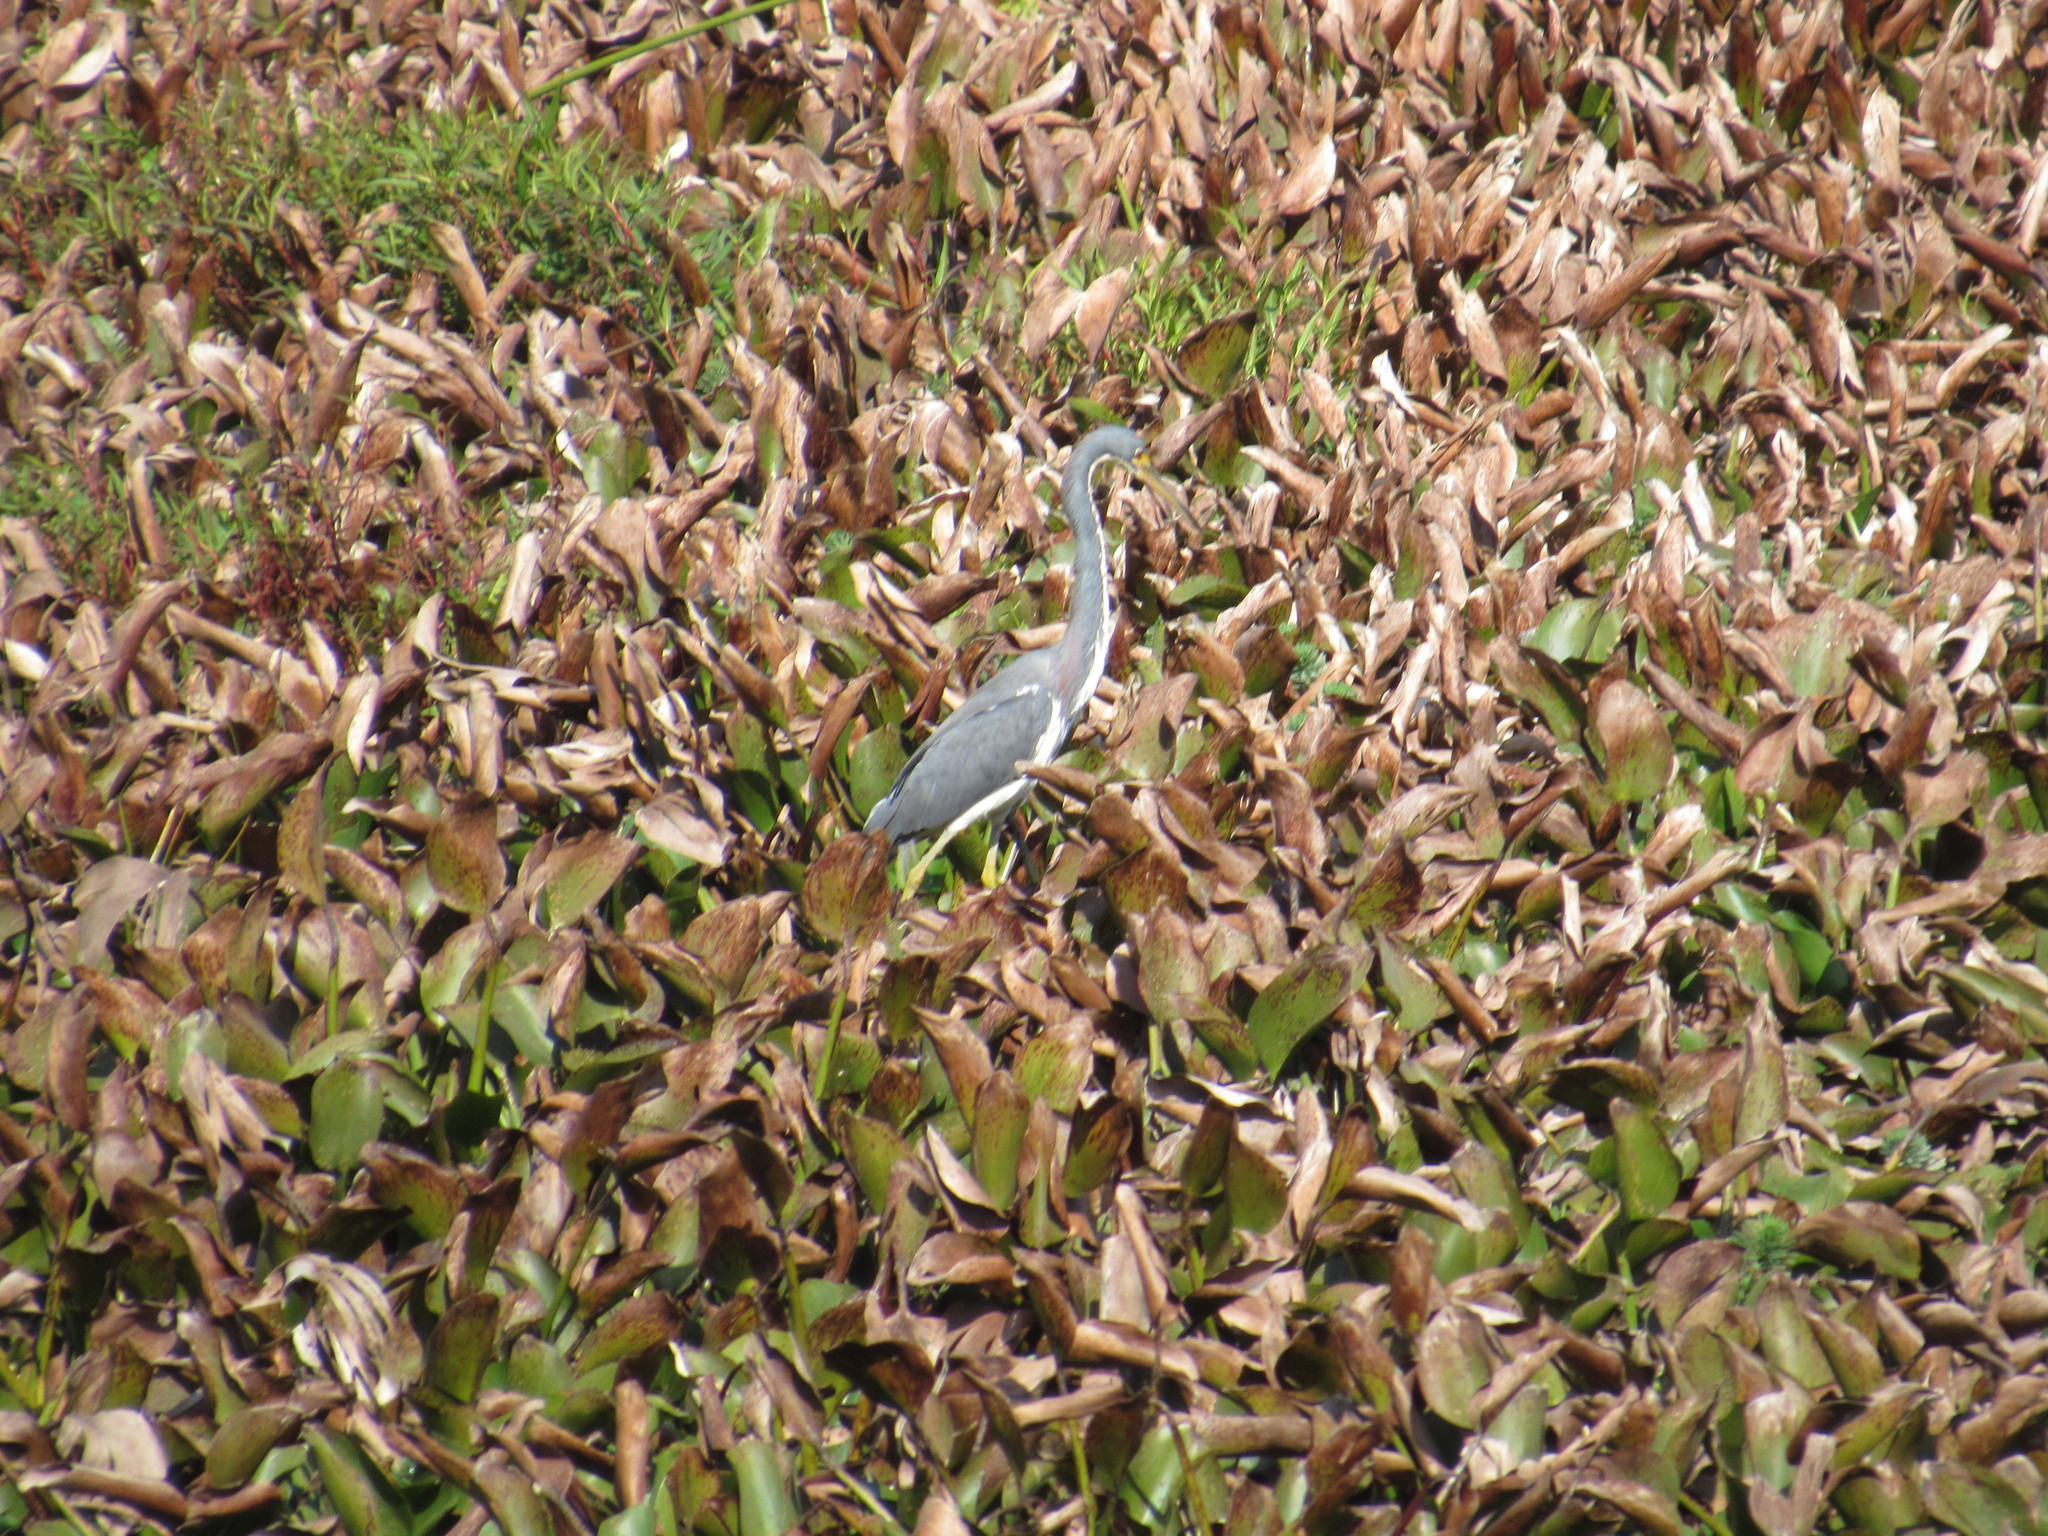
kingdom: Animalia
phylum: Chordata
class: Aves
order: Pelecaniformes
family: Ardeidae
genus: Egretta
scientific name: Egretta tricolor
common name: Tricolored heron
